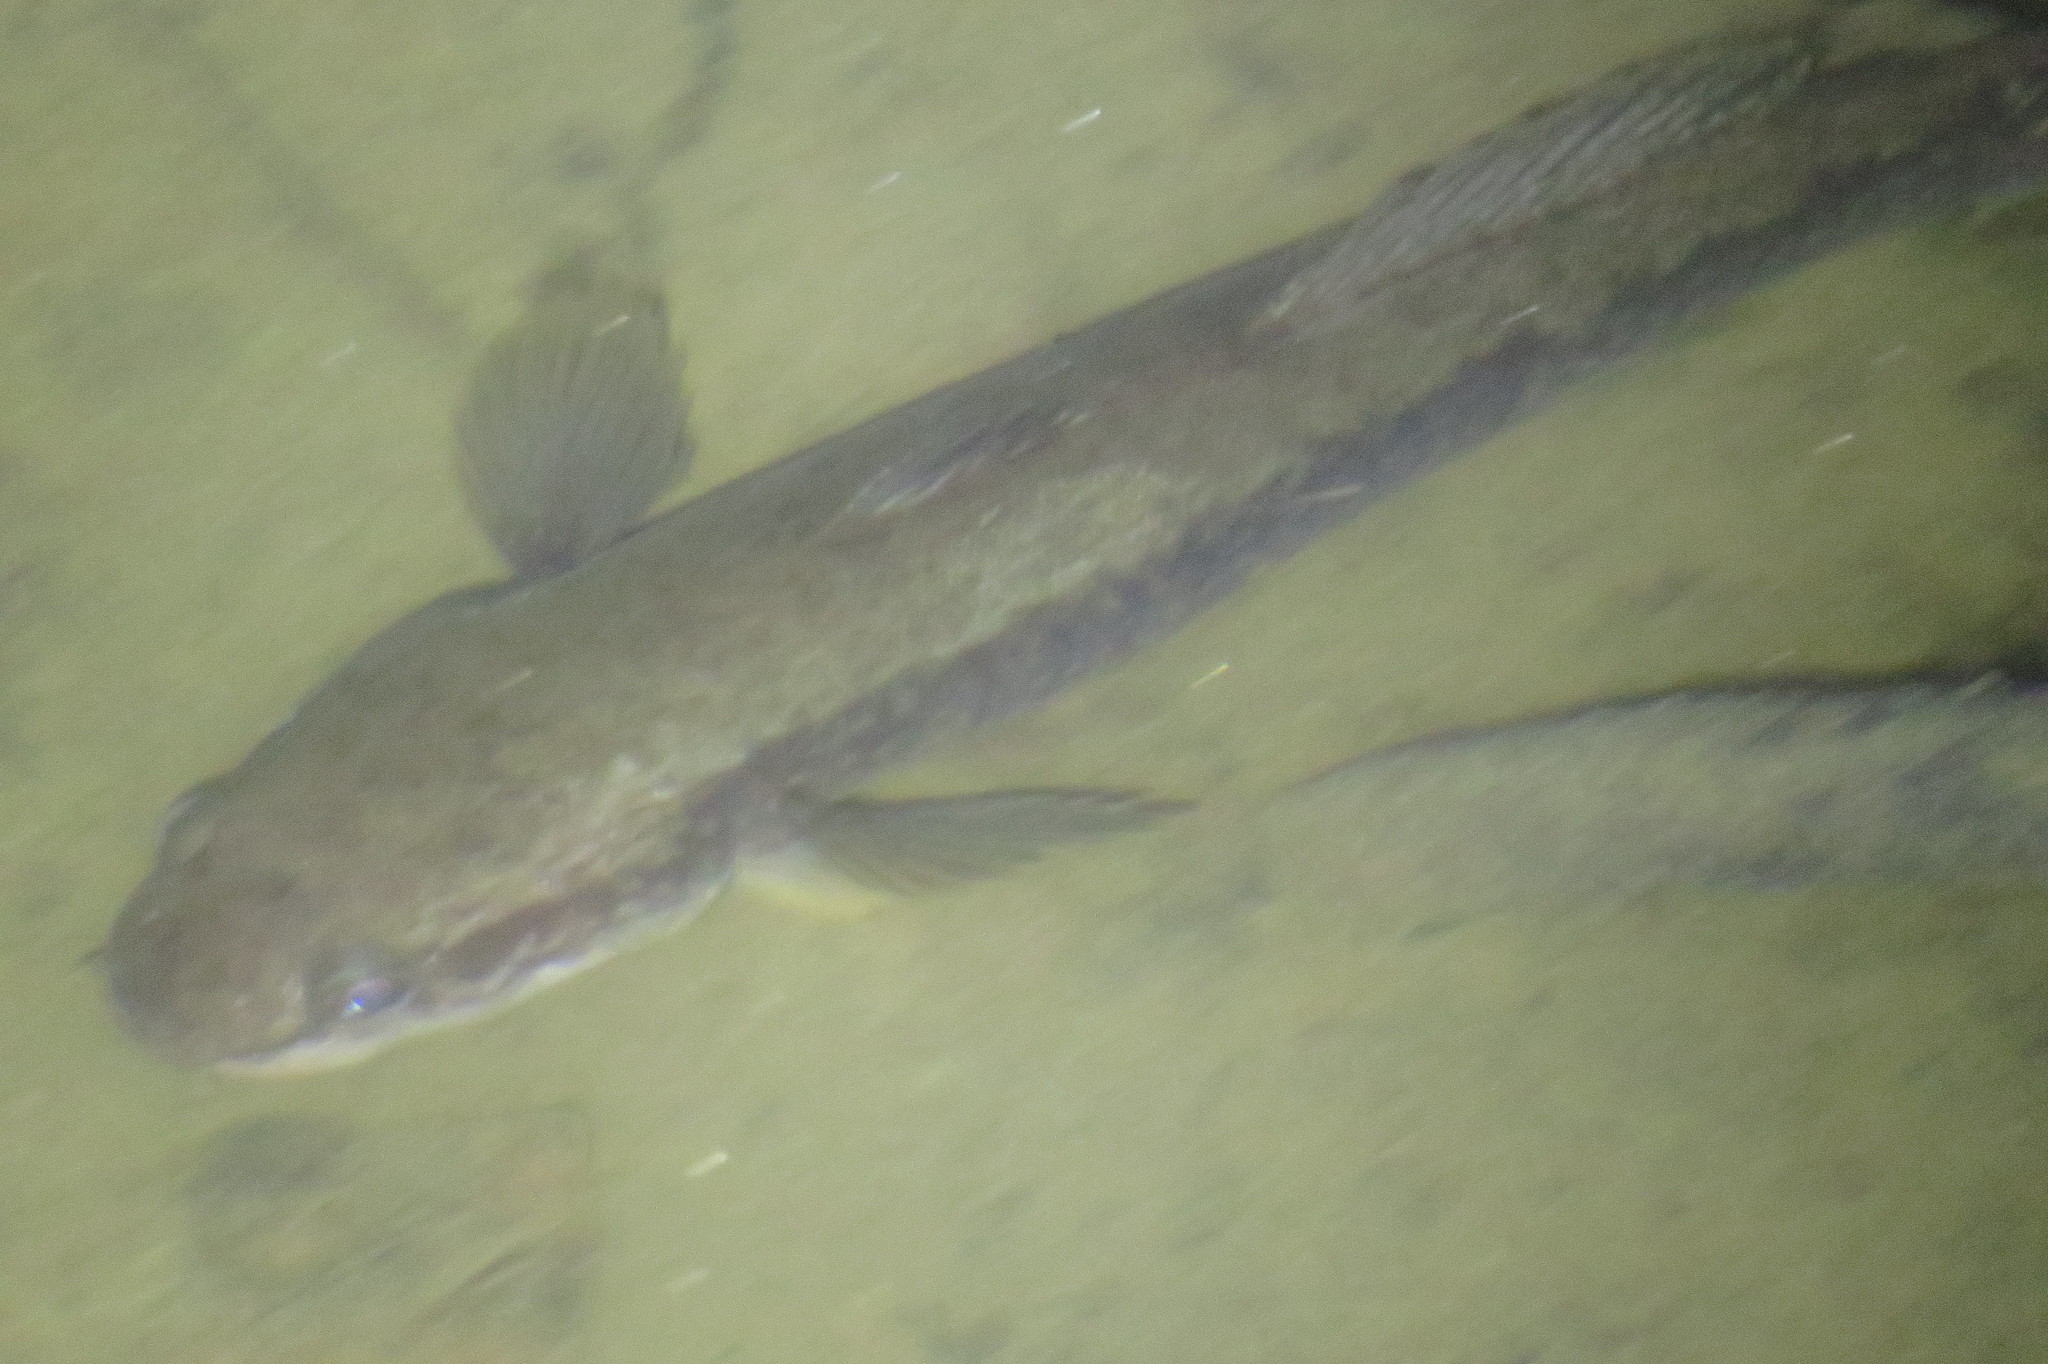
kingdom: Animalia
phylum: Chordata
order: Perciformes
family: Eleotridae
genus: Bostrychus
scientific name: Bostrychus sinensis
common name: Chinese gudgeon
